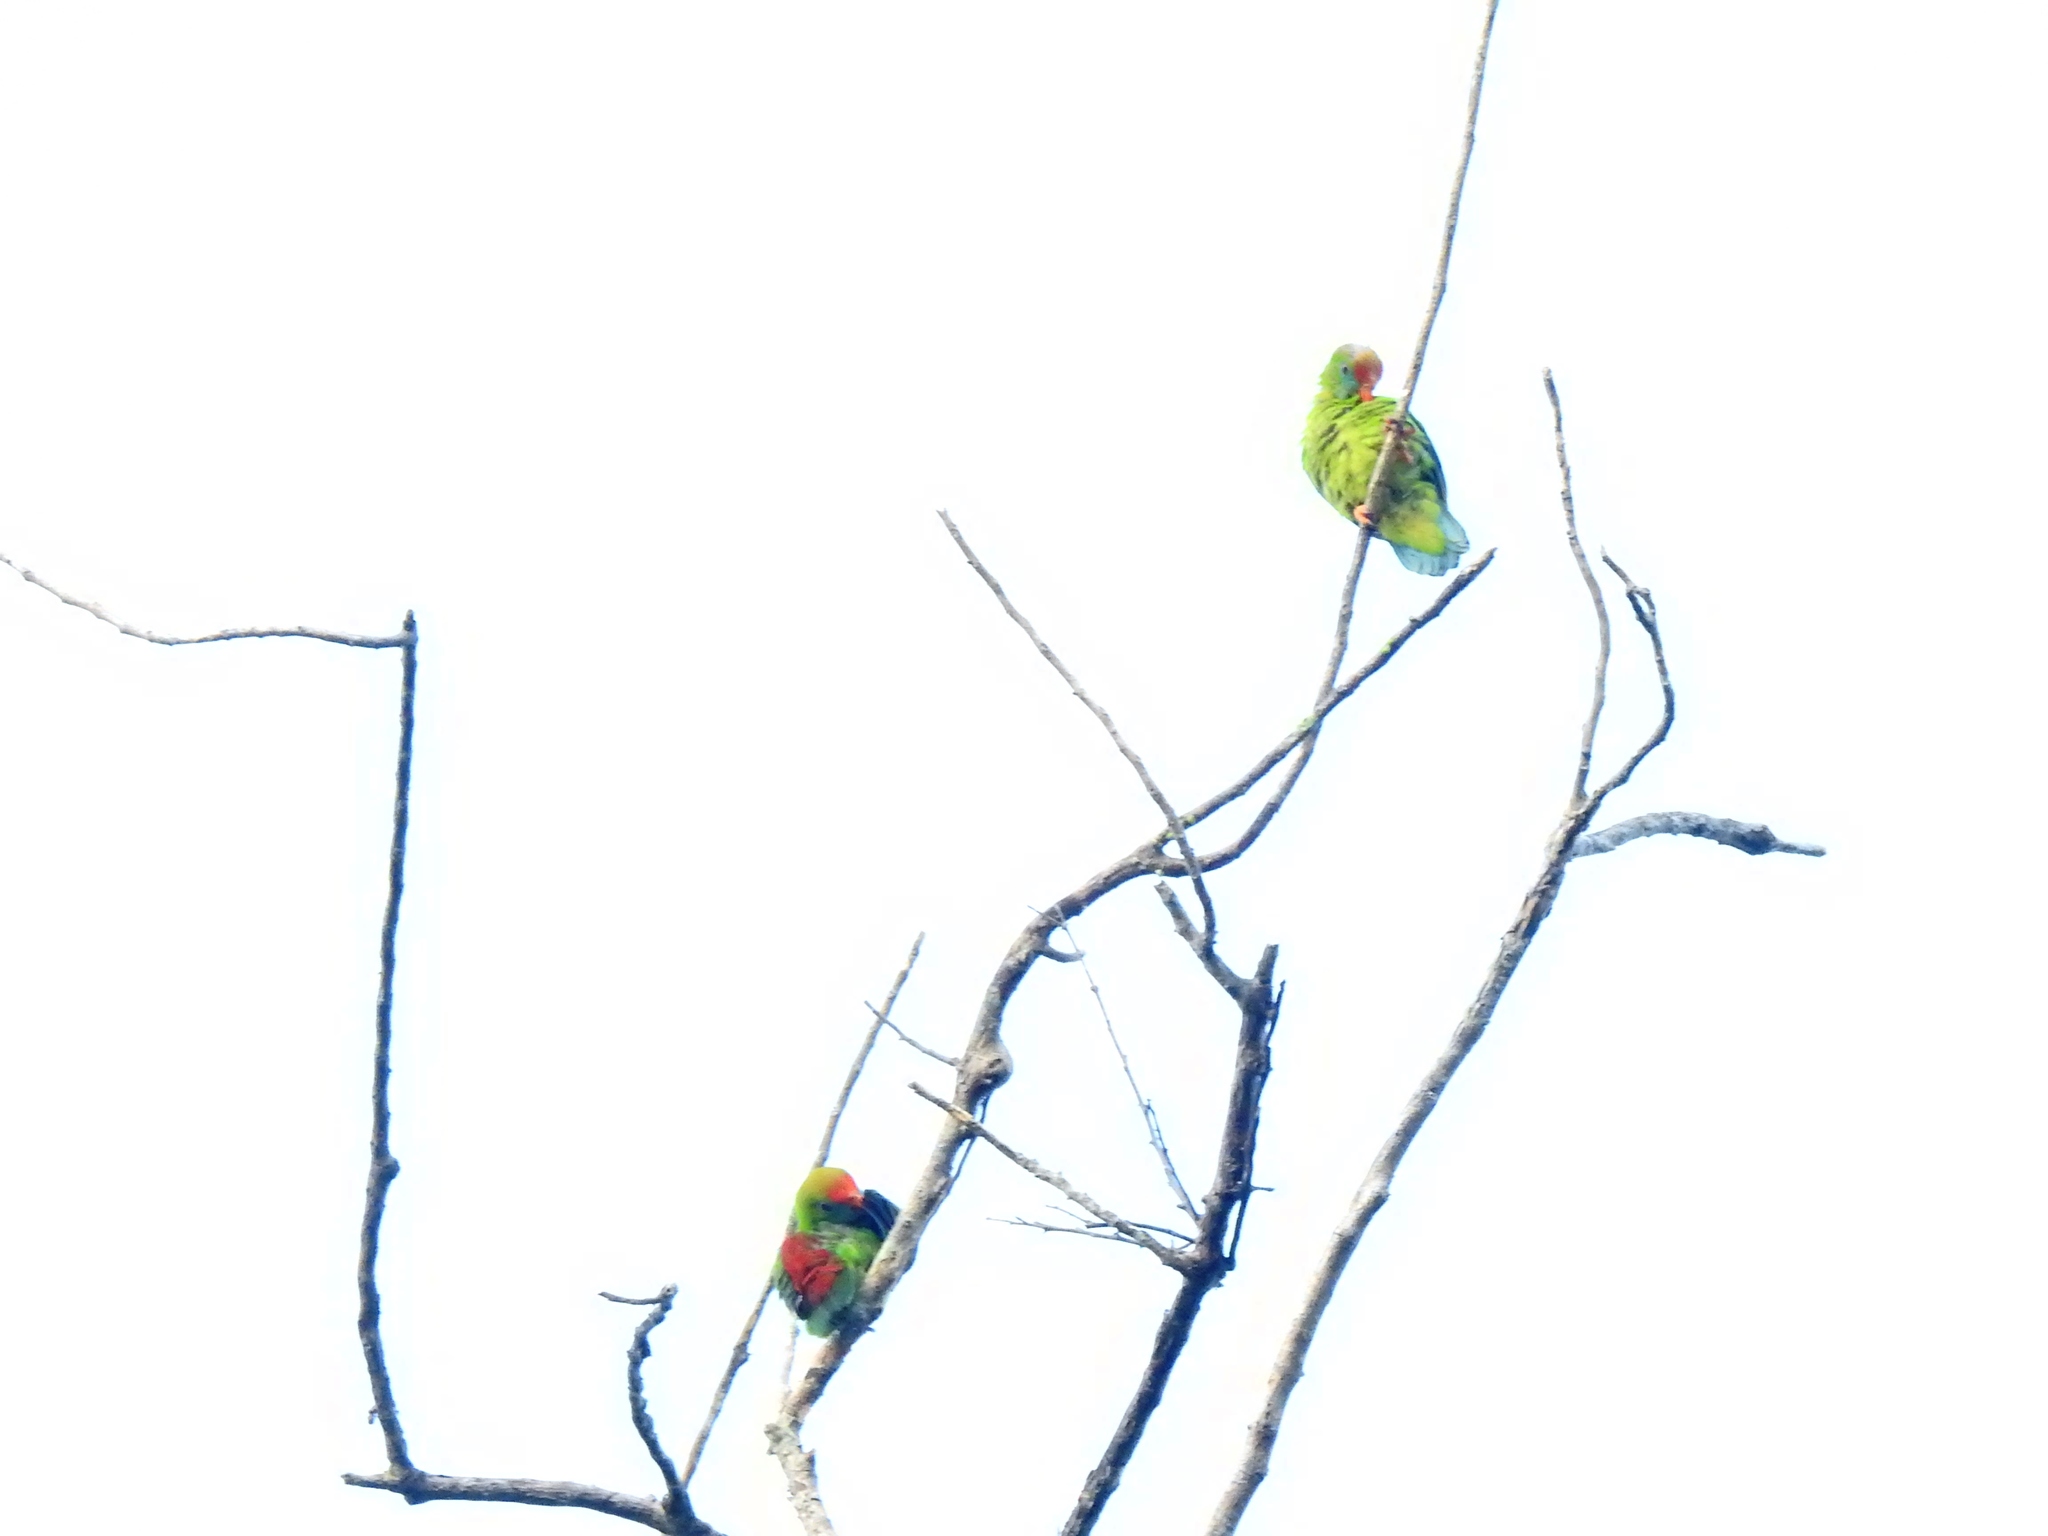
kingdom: Animalia
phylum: Chordata
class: Aves
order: Psittaciformes
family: Psittacidae
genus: Loriculus
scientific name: Loriculus philippensis
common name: Philippine hanging parrot
